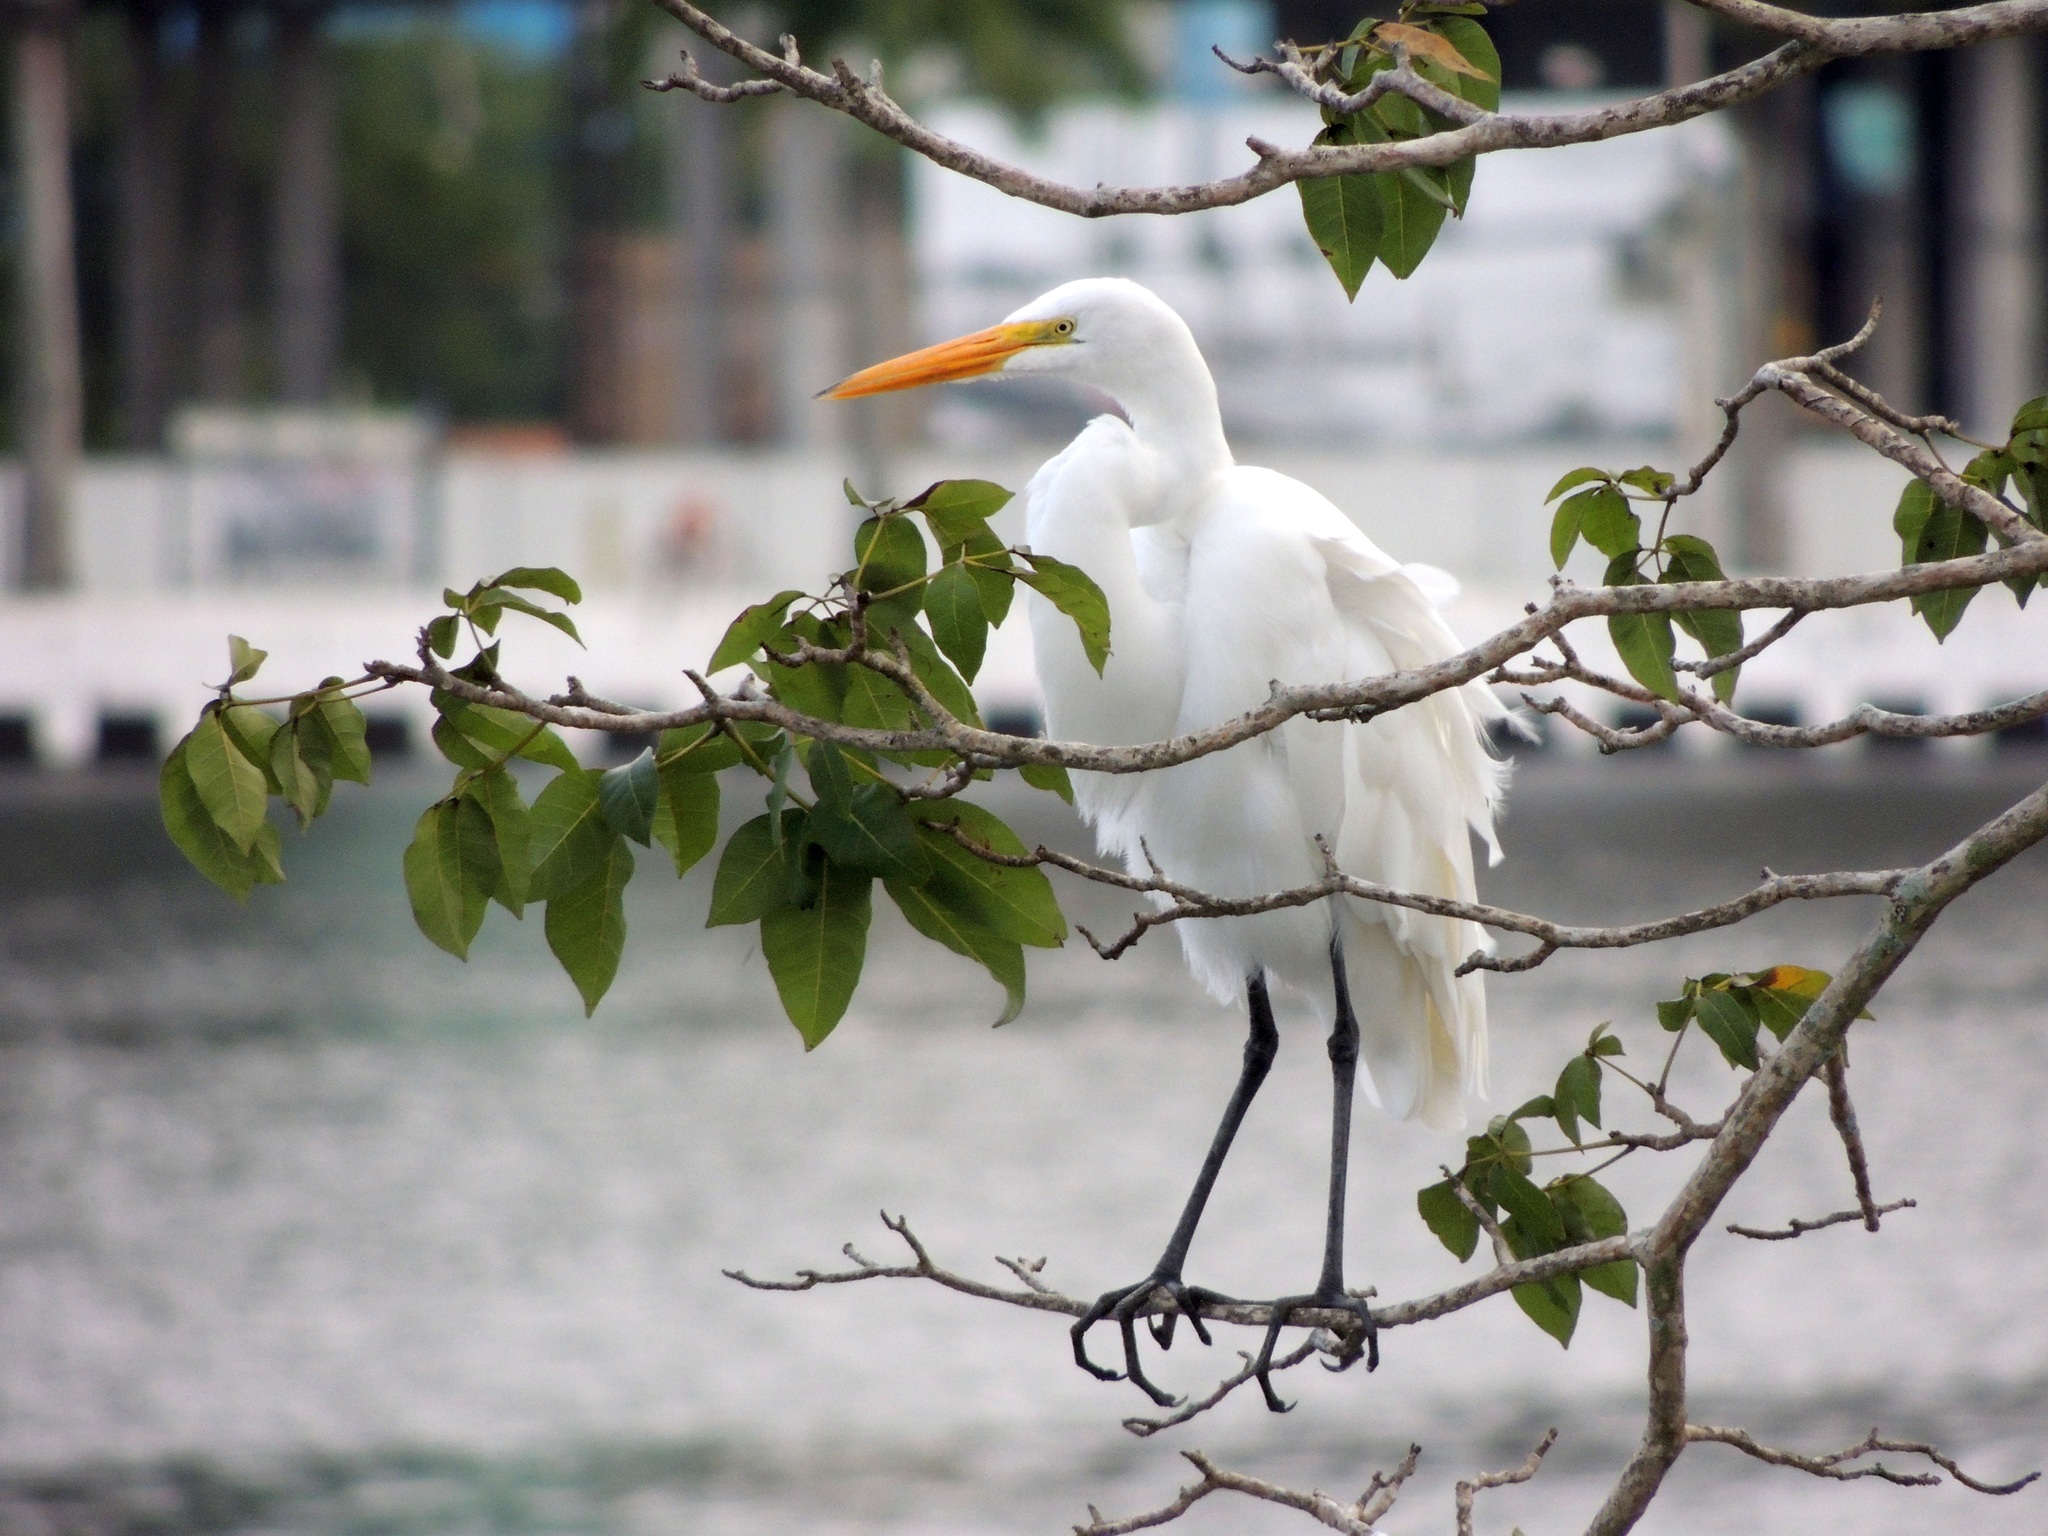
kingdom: Animalia
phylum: Chordata
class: Aves
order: Pelecaniformes
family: Ardeidae
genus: Ardea
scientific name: Ardea alba
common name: Great egret
